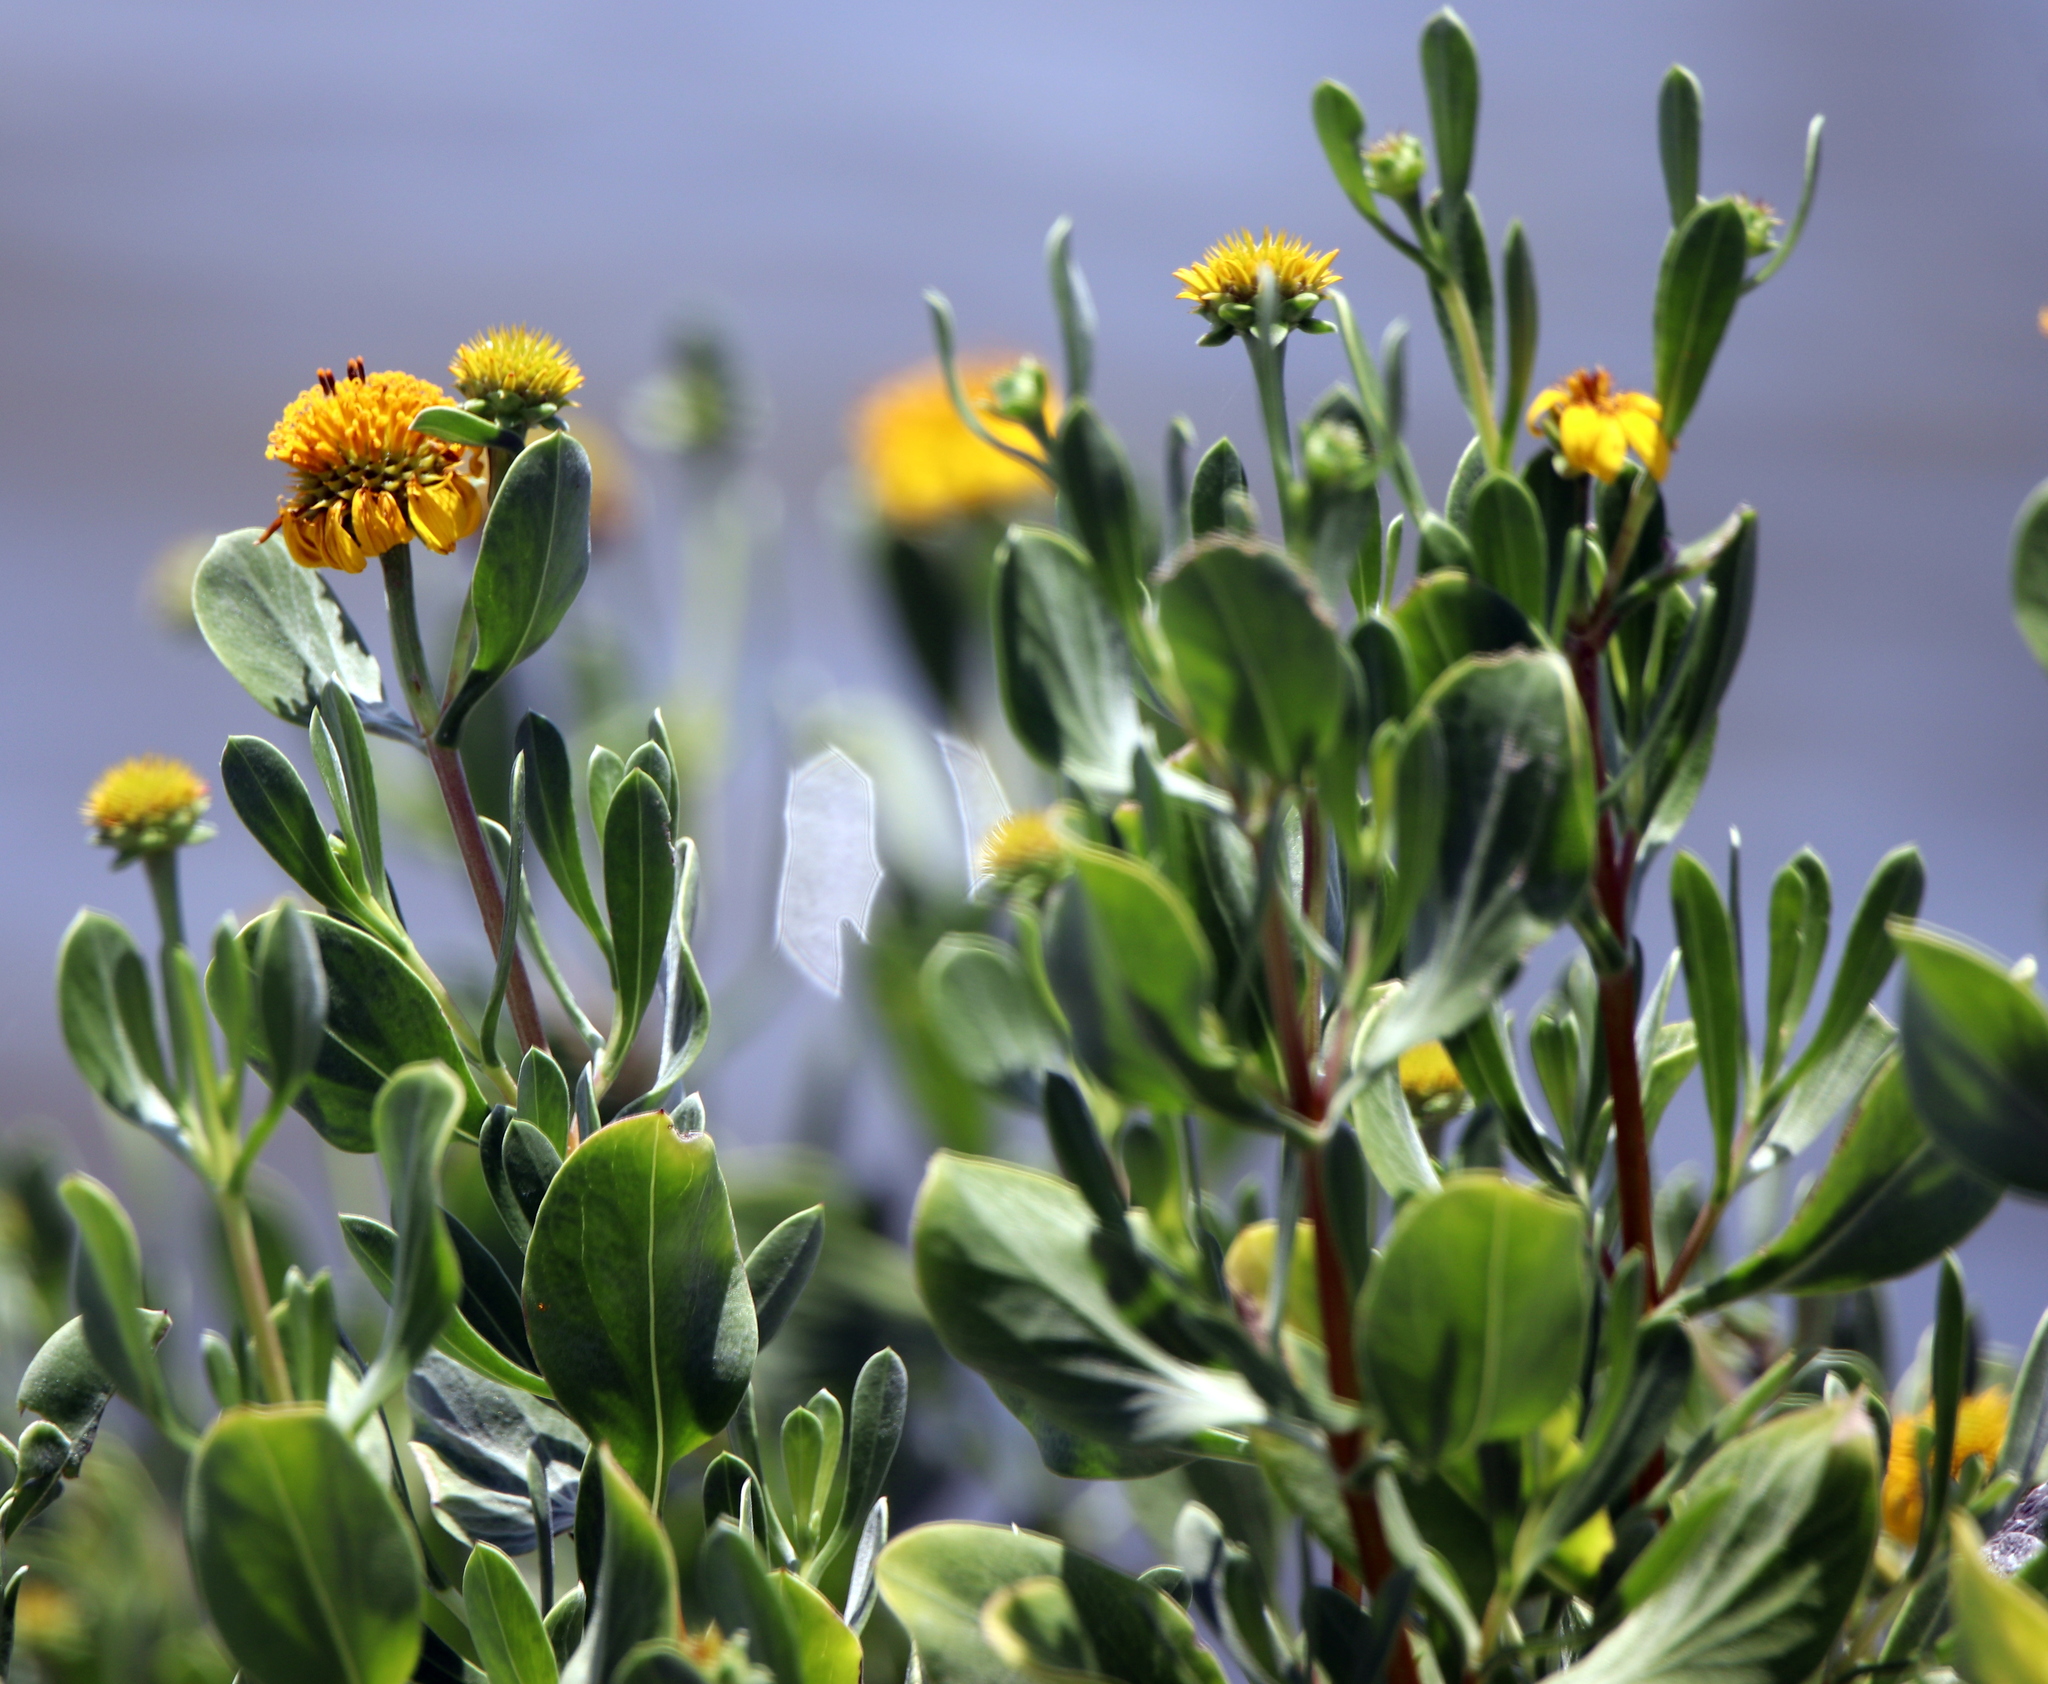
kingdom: Plantae
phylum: Tracheophyta
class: Magnoliopsida
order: Asterales
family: Asteraceae
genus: Borrichia
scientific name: Borrichia frutescens
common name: Sea oxeye
